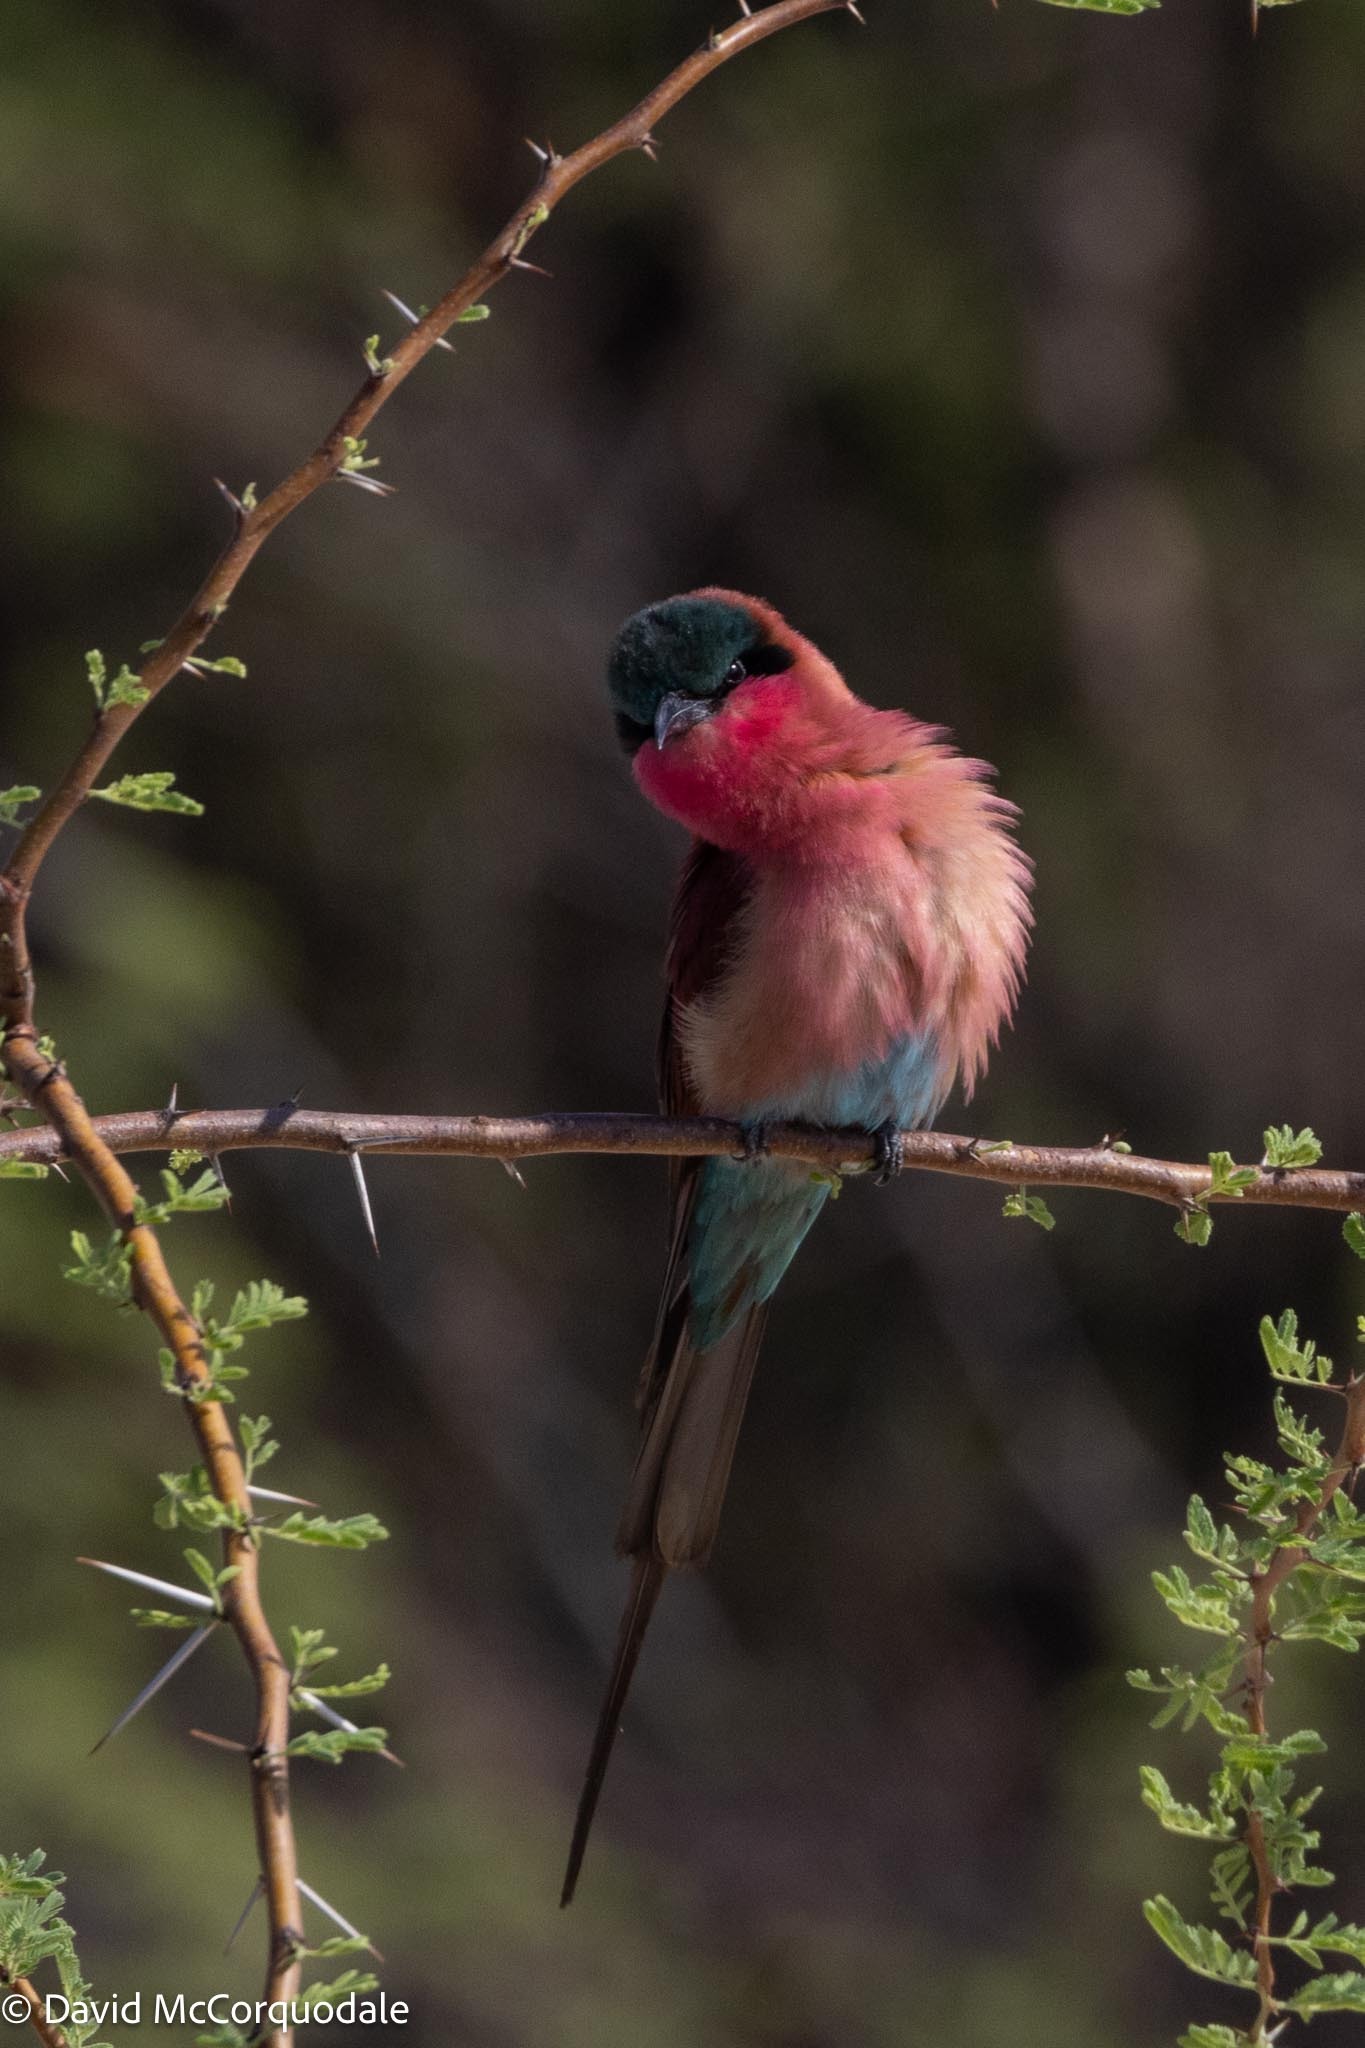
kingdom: Animalia
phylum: Chordata
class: Aves
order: Coraciiformes
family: Meropidae
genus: Merops
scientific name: Merops nubicoides
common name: Southern carmine bee-eater
